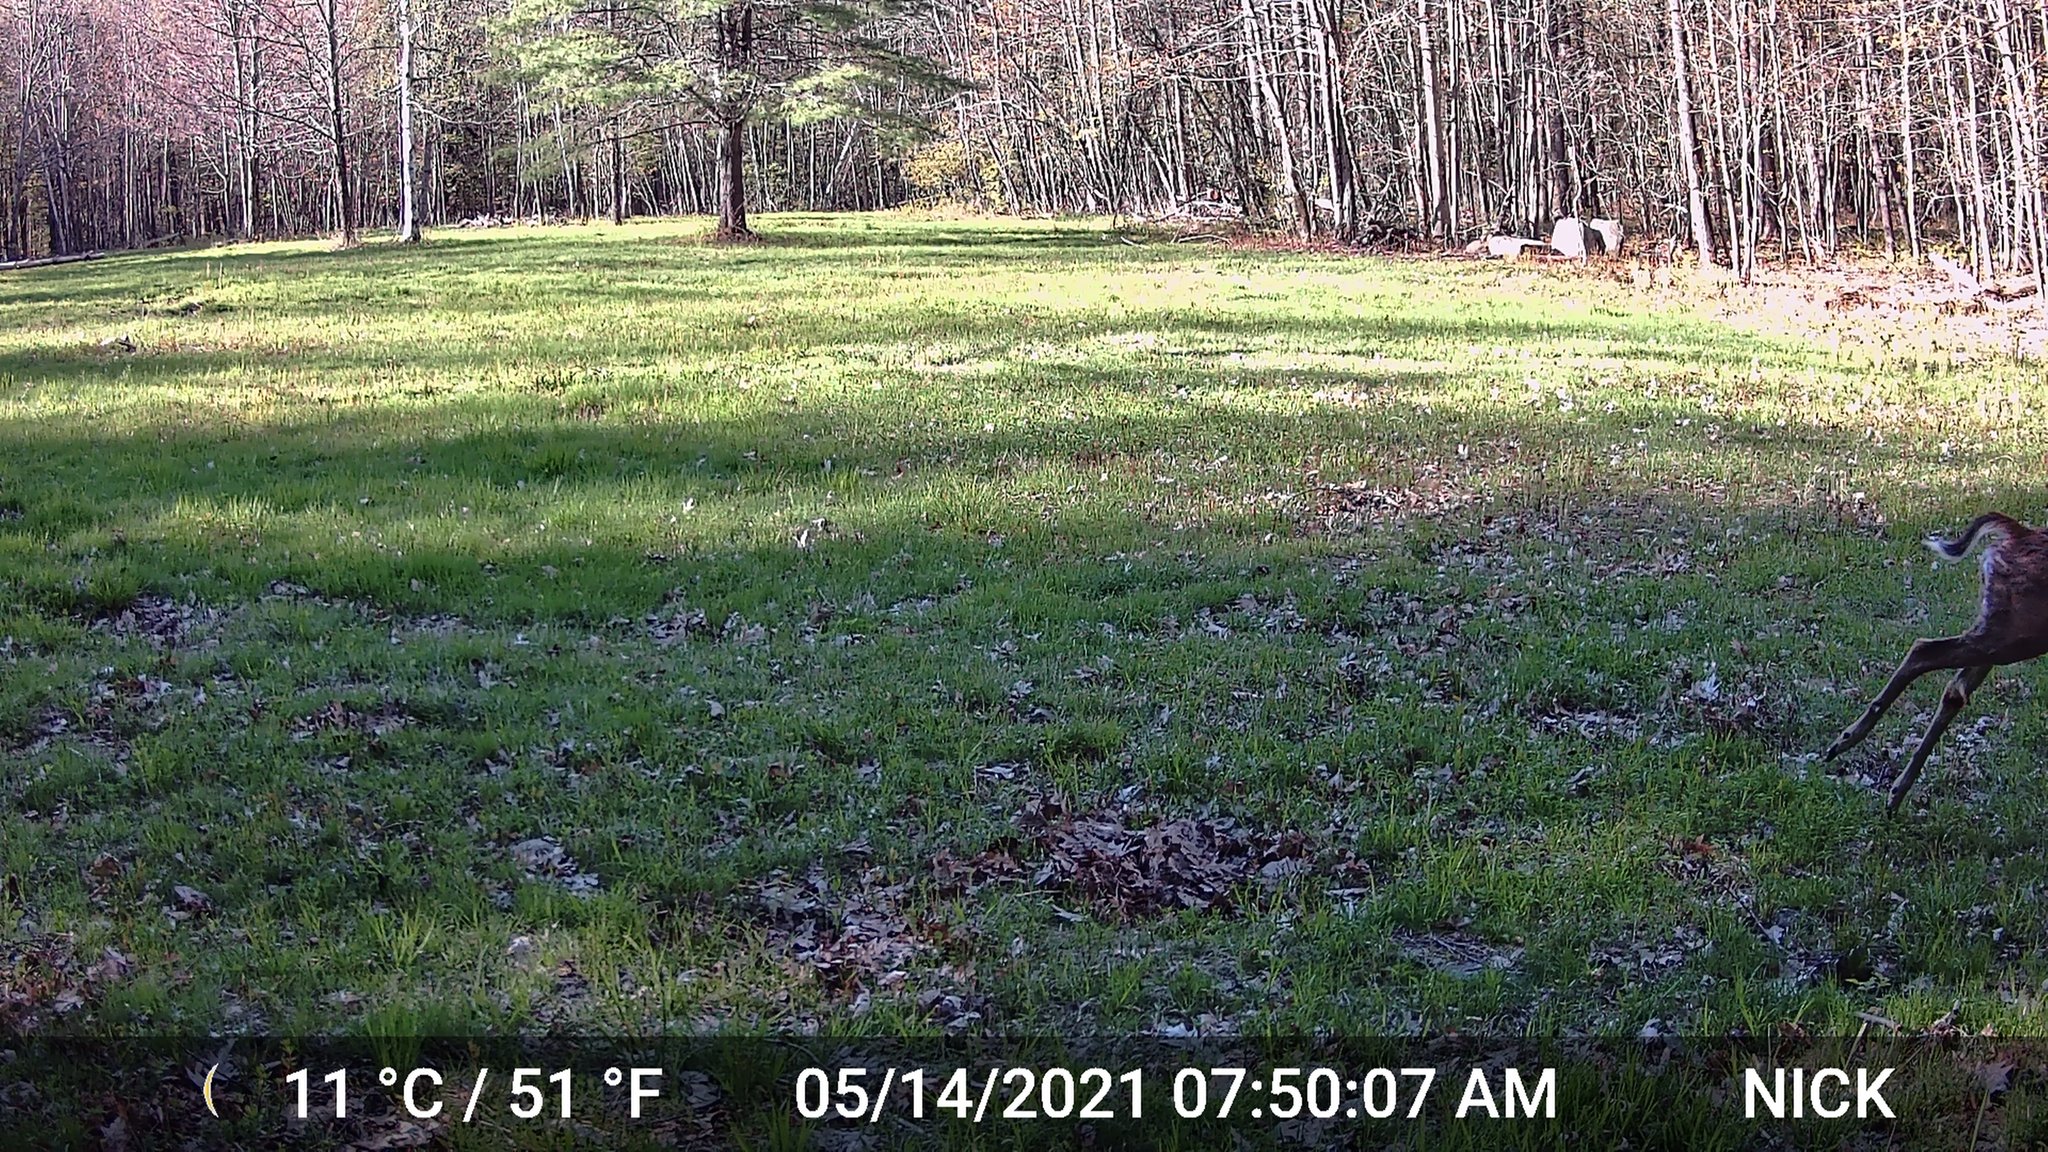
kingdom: Animalia
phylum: Chordata
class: Mammalia
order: Artiodactyla
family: Cervidae
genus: Odocoileus
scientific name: Odocoileus virginianus
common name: White-tailed deer
